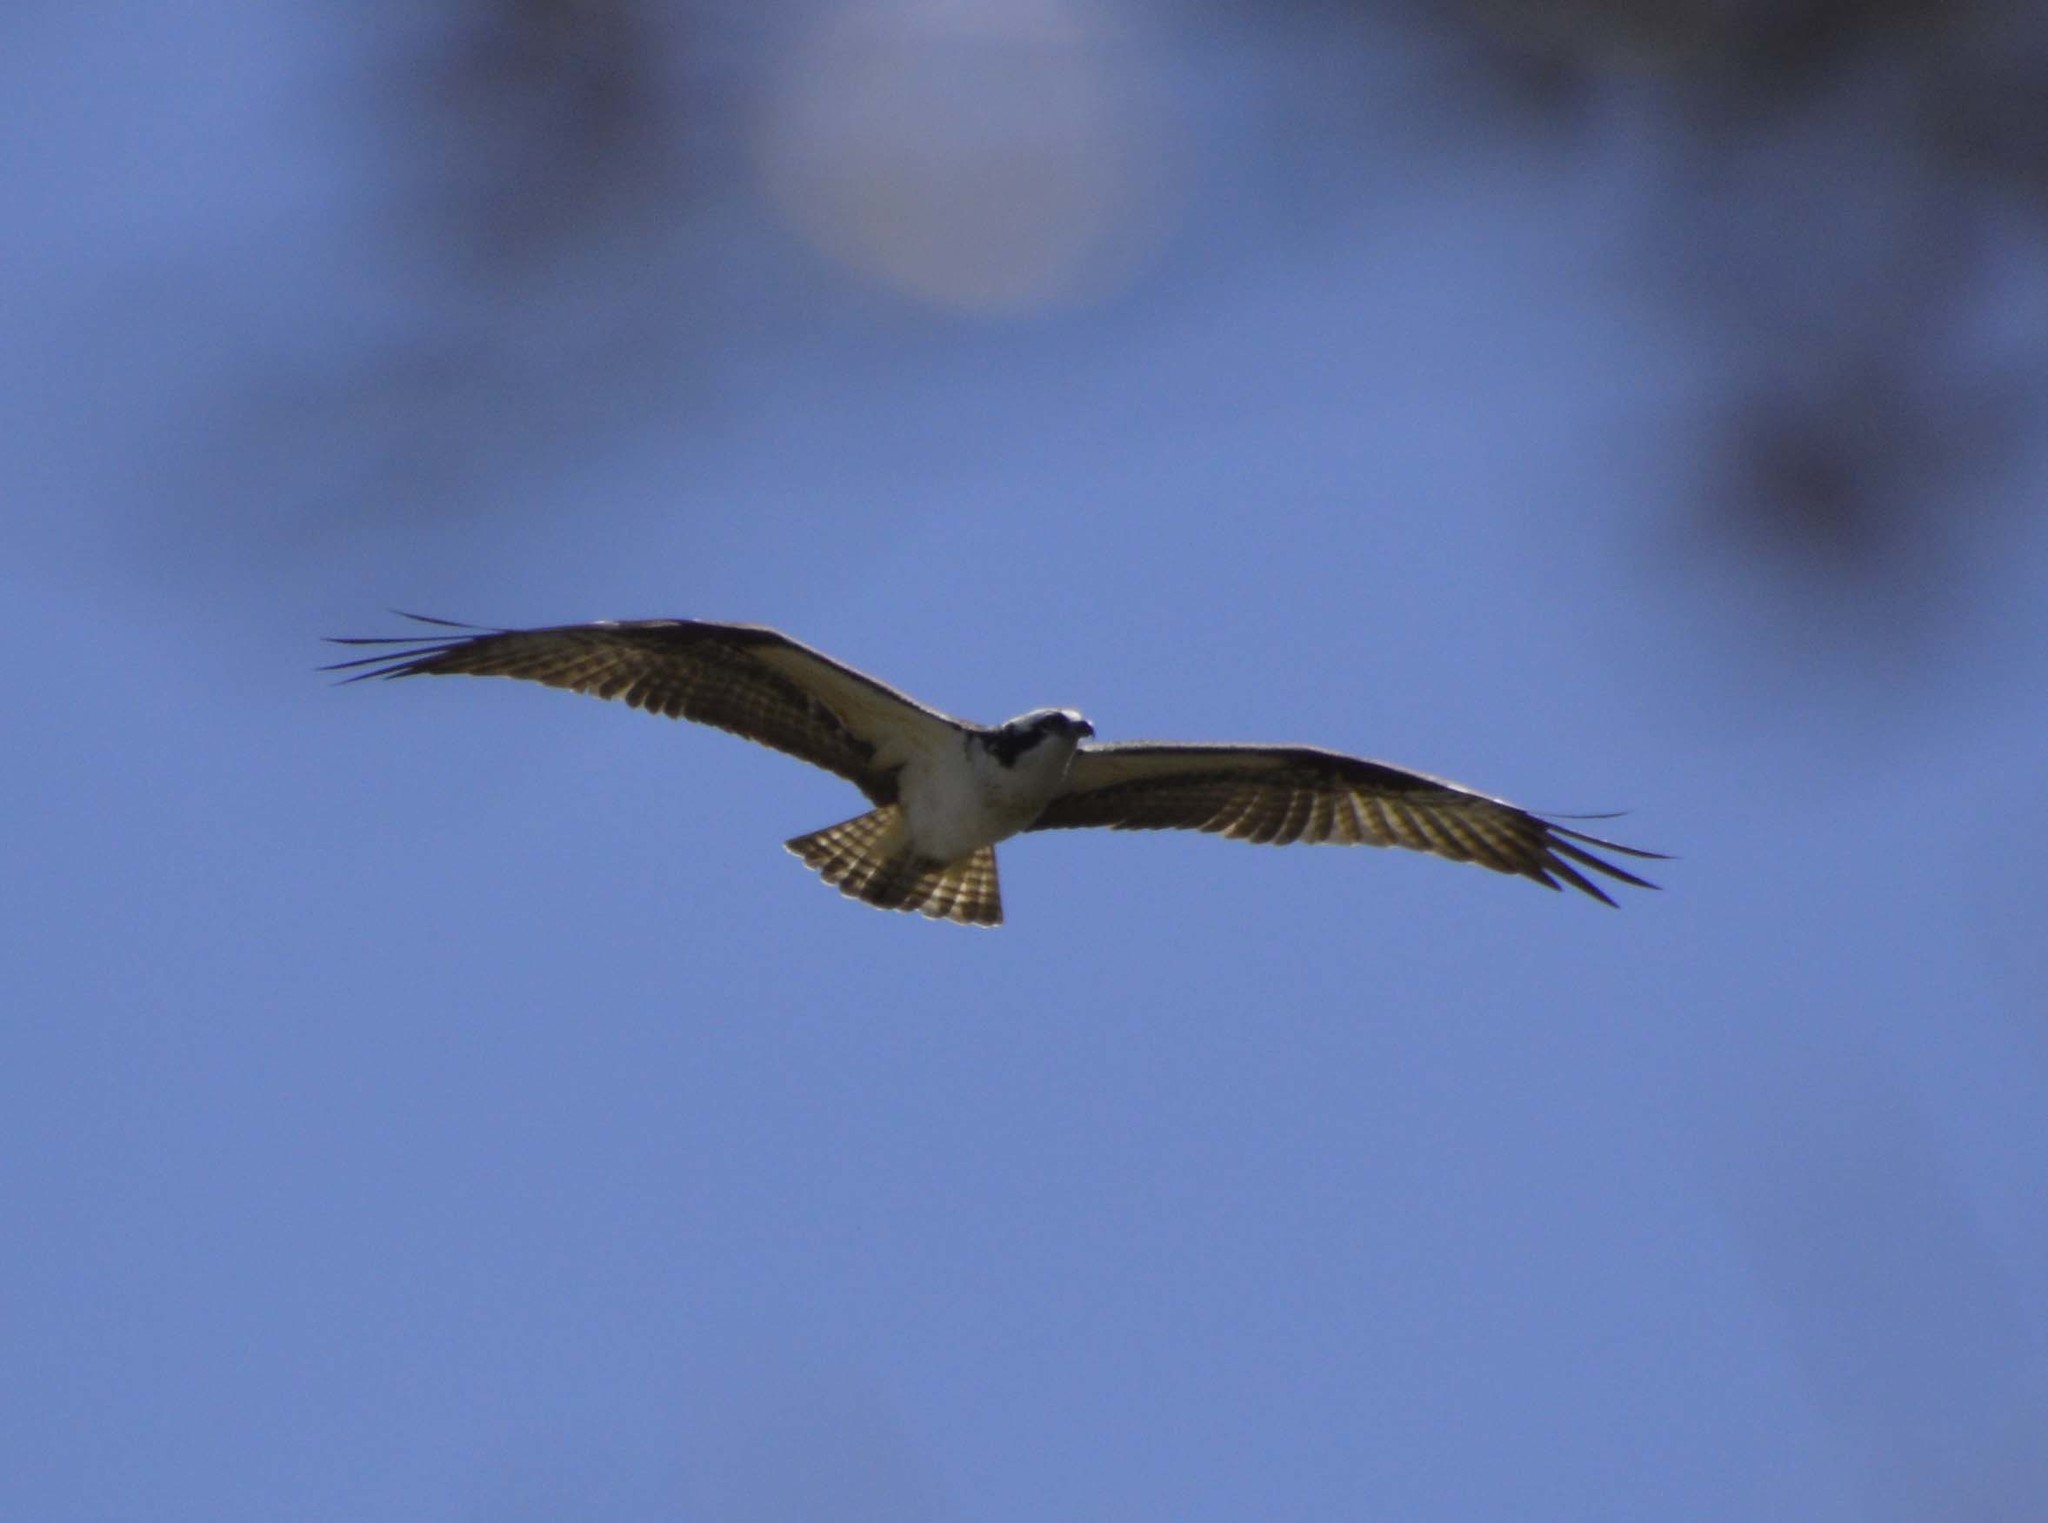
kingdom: Animalia
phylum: Chordata
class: Aves
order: Accipitriformes
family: Pandionidae
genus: Pandion
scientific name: Pandion haliaetus
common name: Osprey
